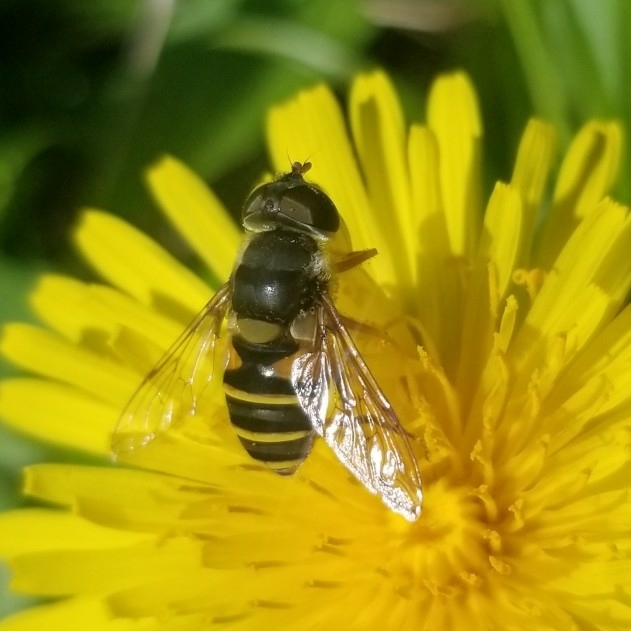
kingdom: Animalia
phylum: Arthropoda
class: Insecta
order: Diptera
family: Syrphidae
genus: Eristalis
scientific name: Eristalis transversa
